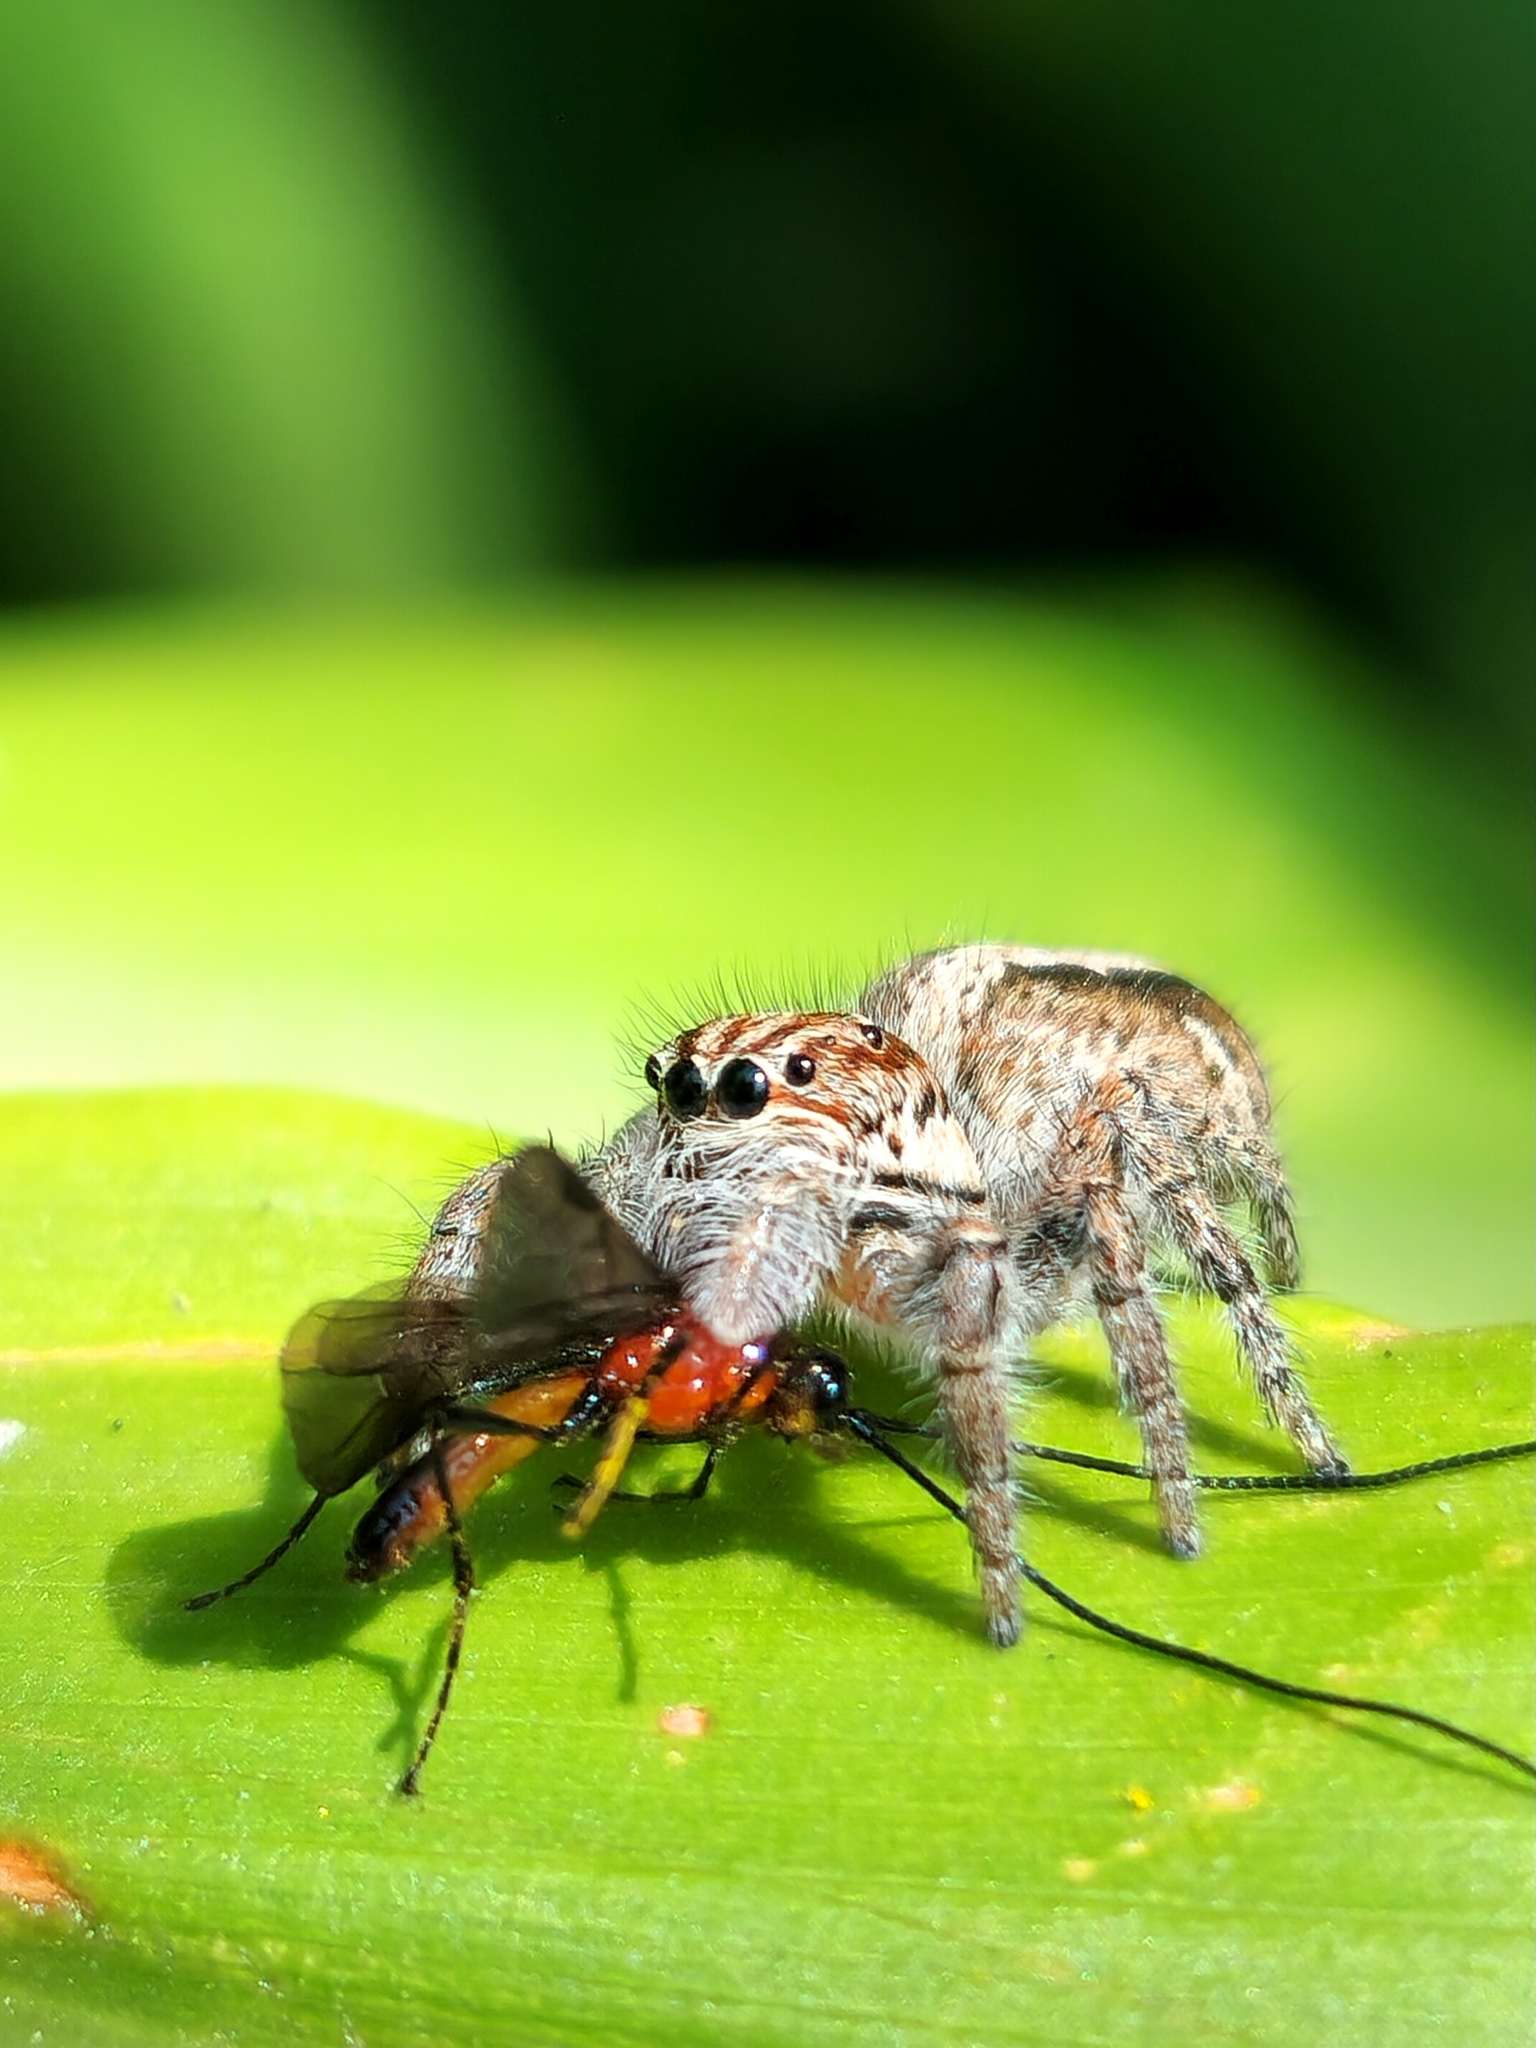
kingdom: Animalia
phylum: Arthropoda
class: Arachnida
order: Araneae
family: Salticidae
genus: Megafreya
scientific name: Megafreya sutrix
